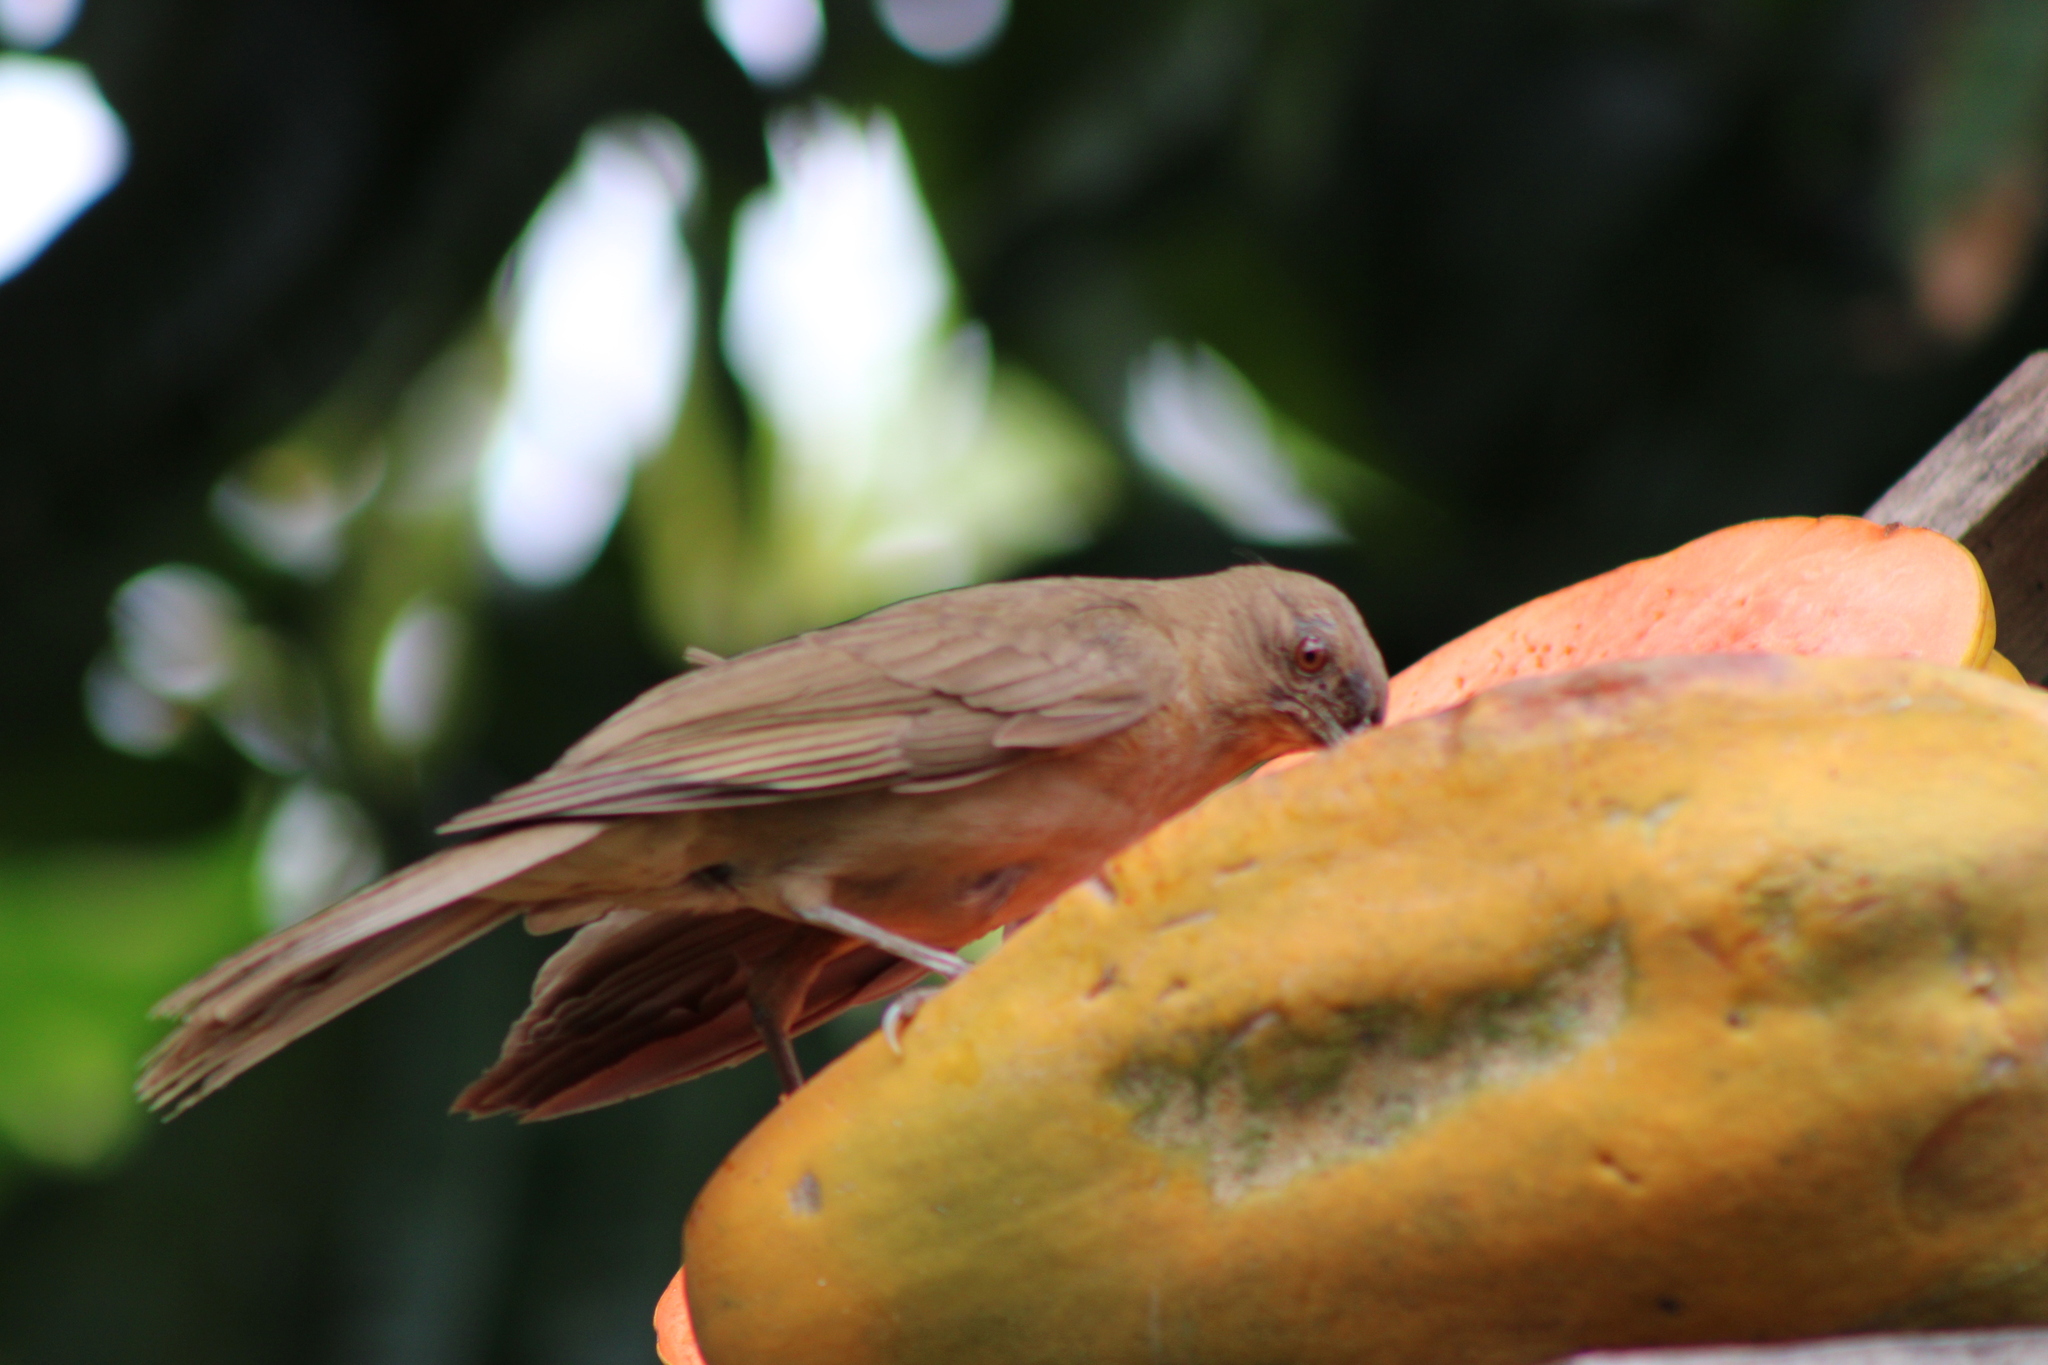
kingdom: Animalia
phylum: Chordata
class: Aves
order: Passeriformes
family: Turdidae
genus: Turdus
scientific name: Turdus grayi
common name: Clay-colored thrush
